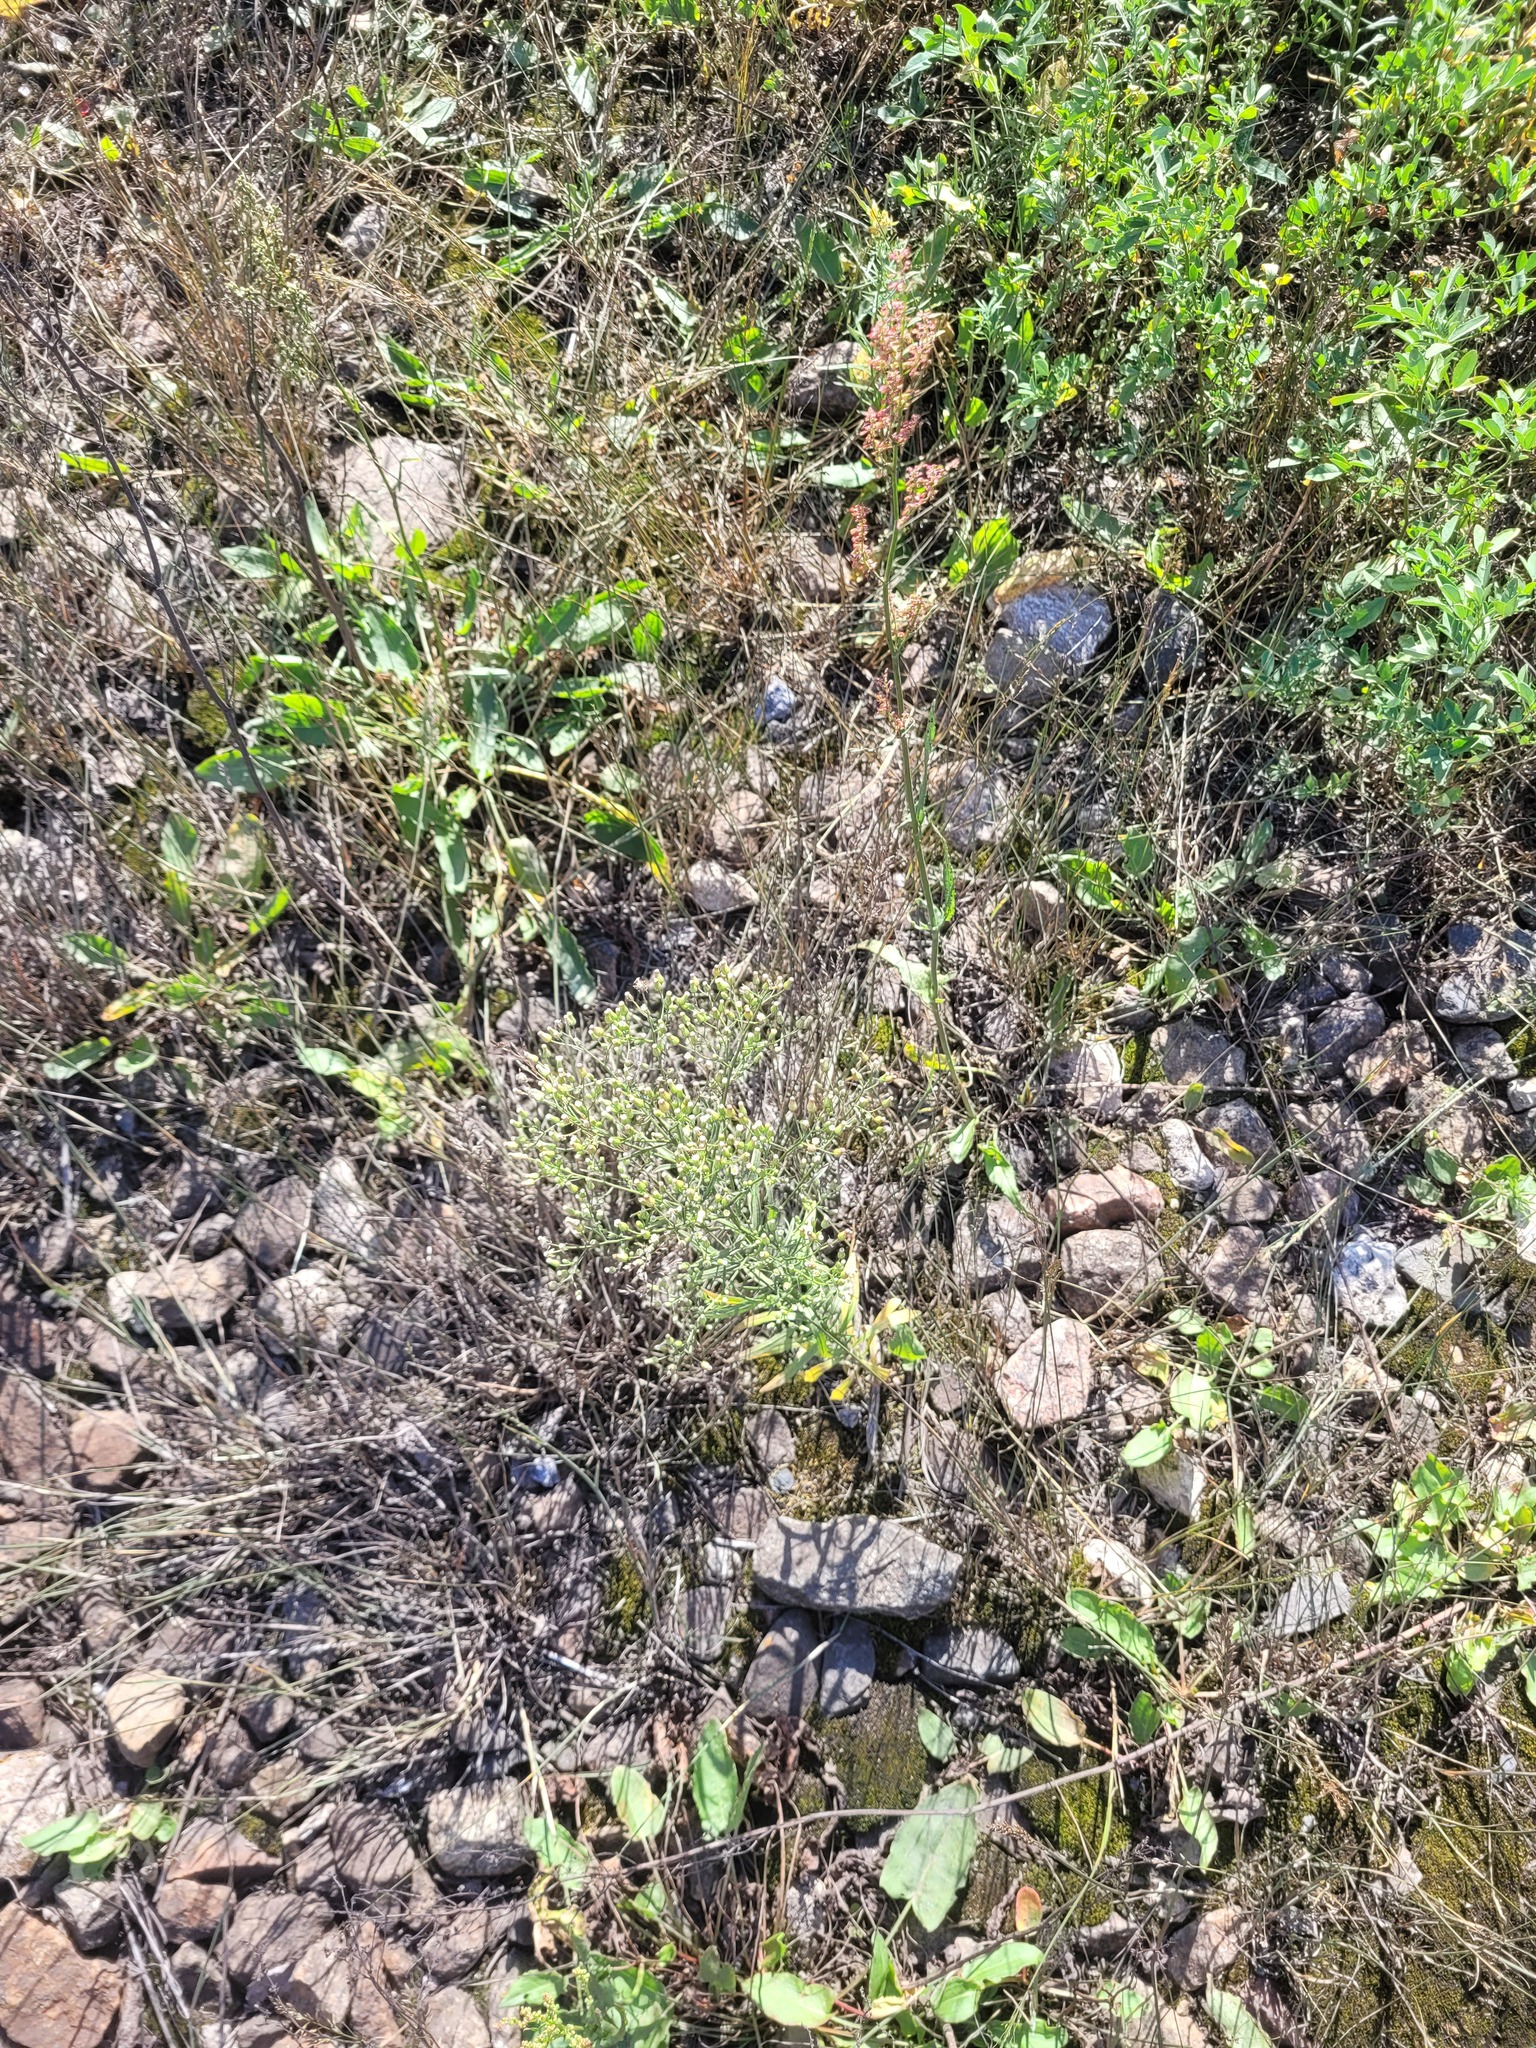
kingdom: Plantae
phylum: Tracheophyta
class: Magnoliopsida
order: Asterales
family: Asteraceae
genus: Erigeron
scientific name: Erigeron canadensis
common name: Canadian fleabane
